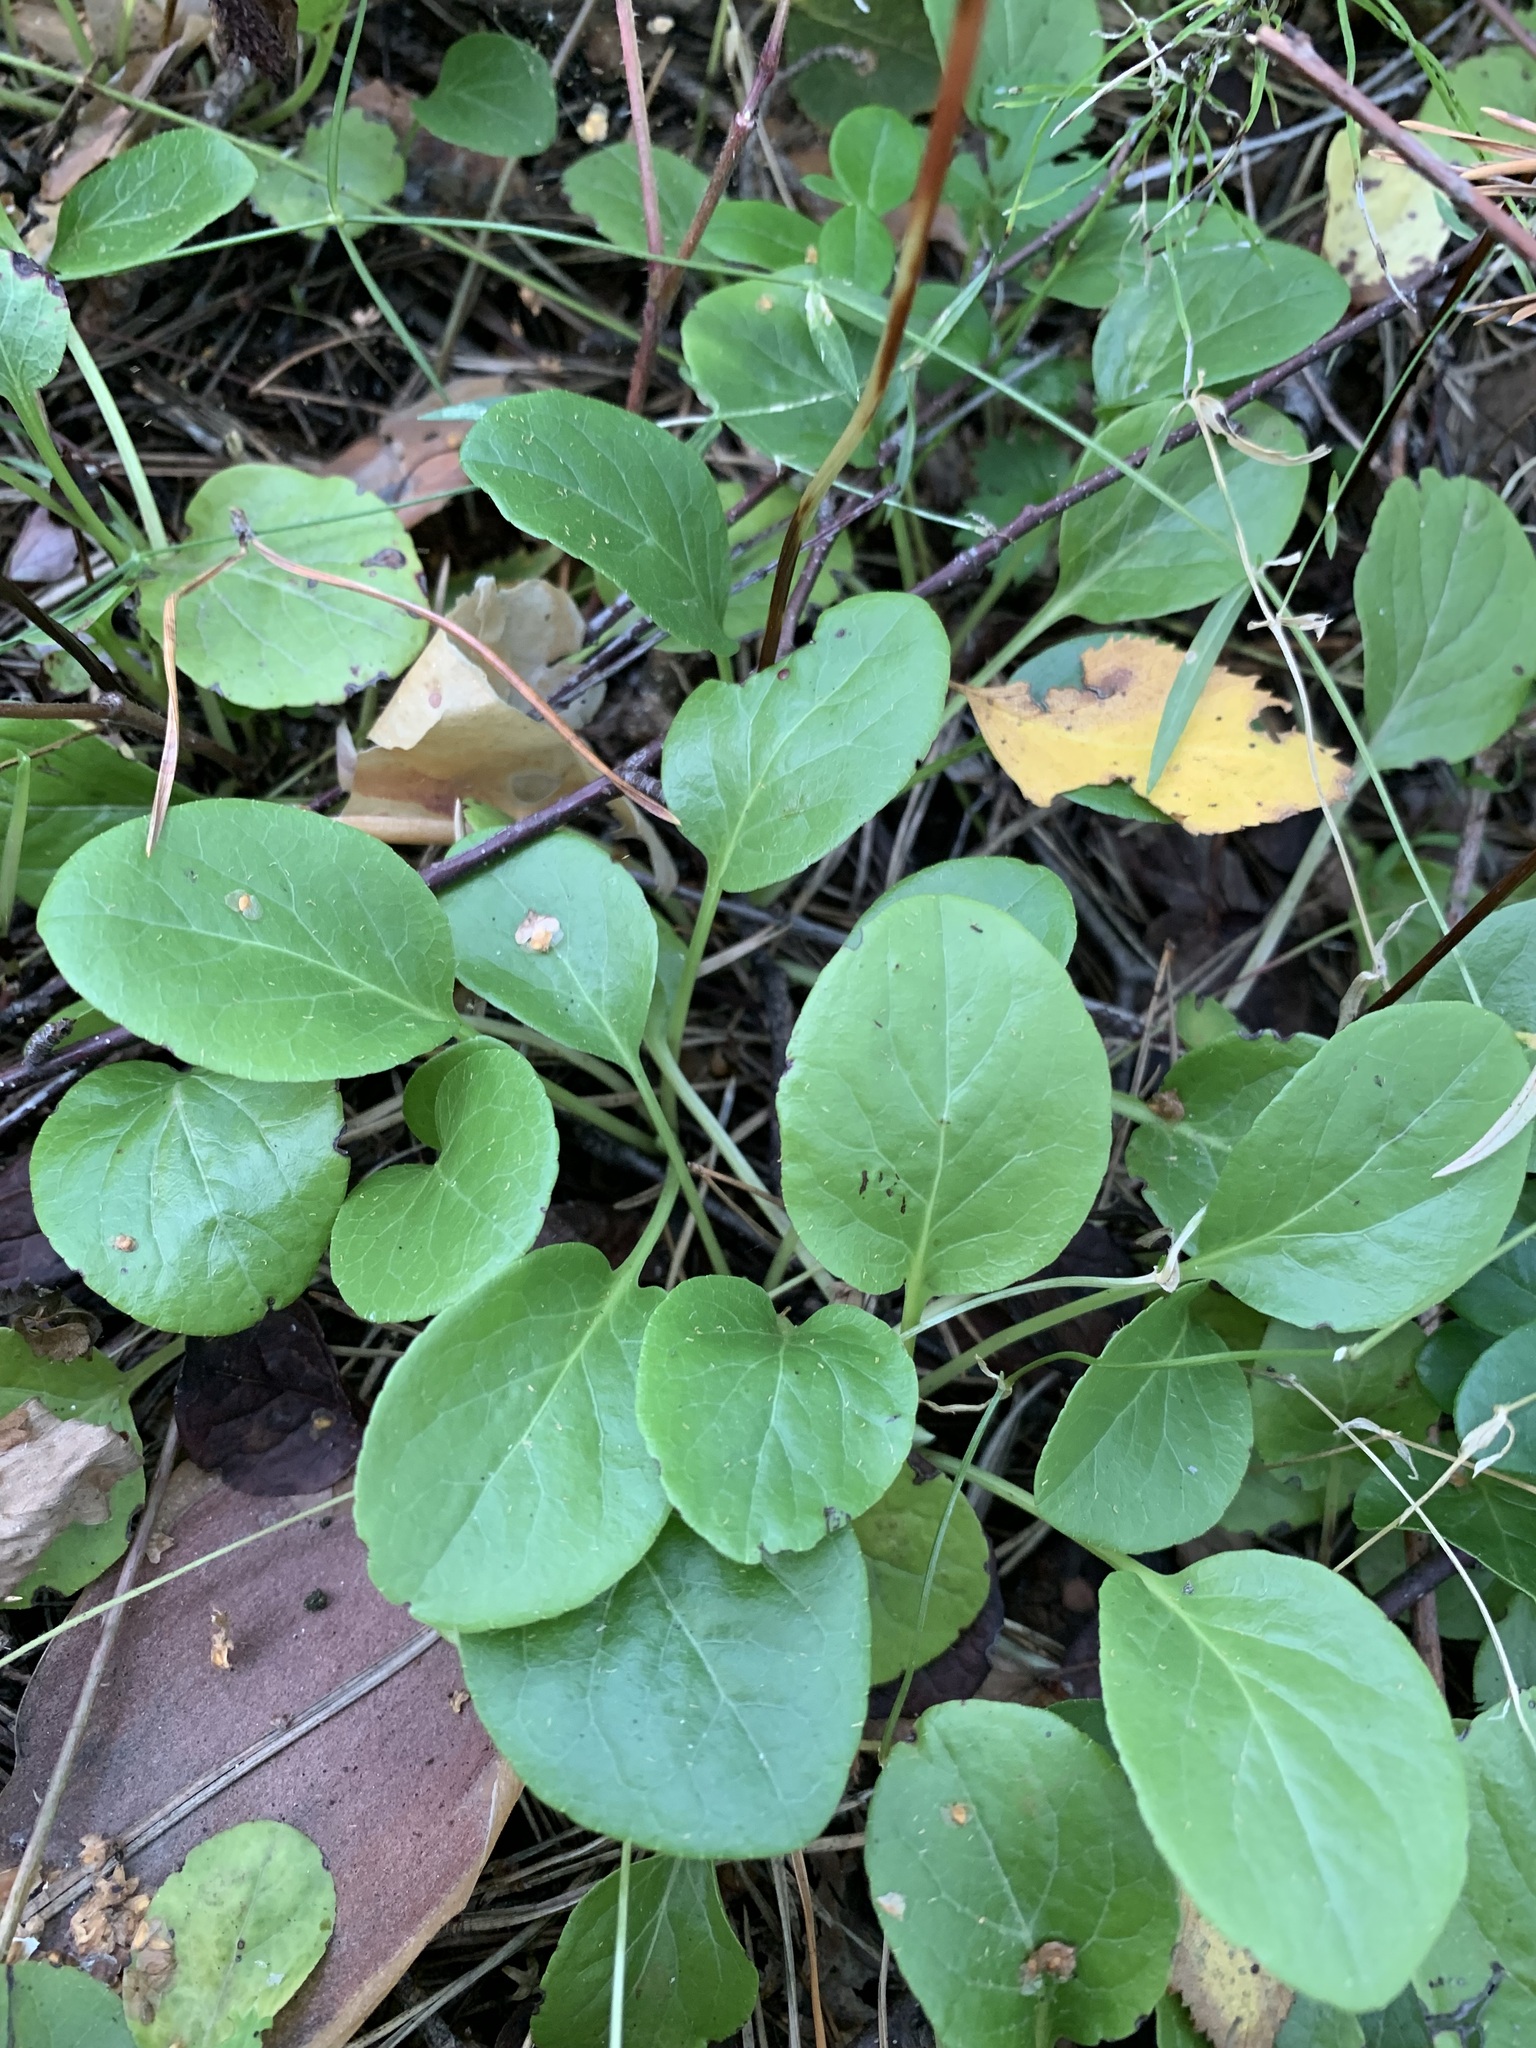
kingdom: Plantae
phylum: Tracheophyta
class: Magnoliopsida
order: Ericales
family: Ericaceae
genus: Pyrola
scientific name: Pyrola rotundifolia
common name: Round-leaved wintergreen
